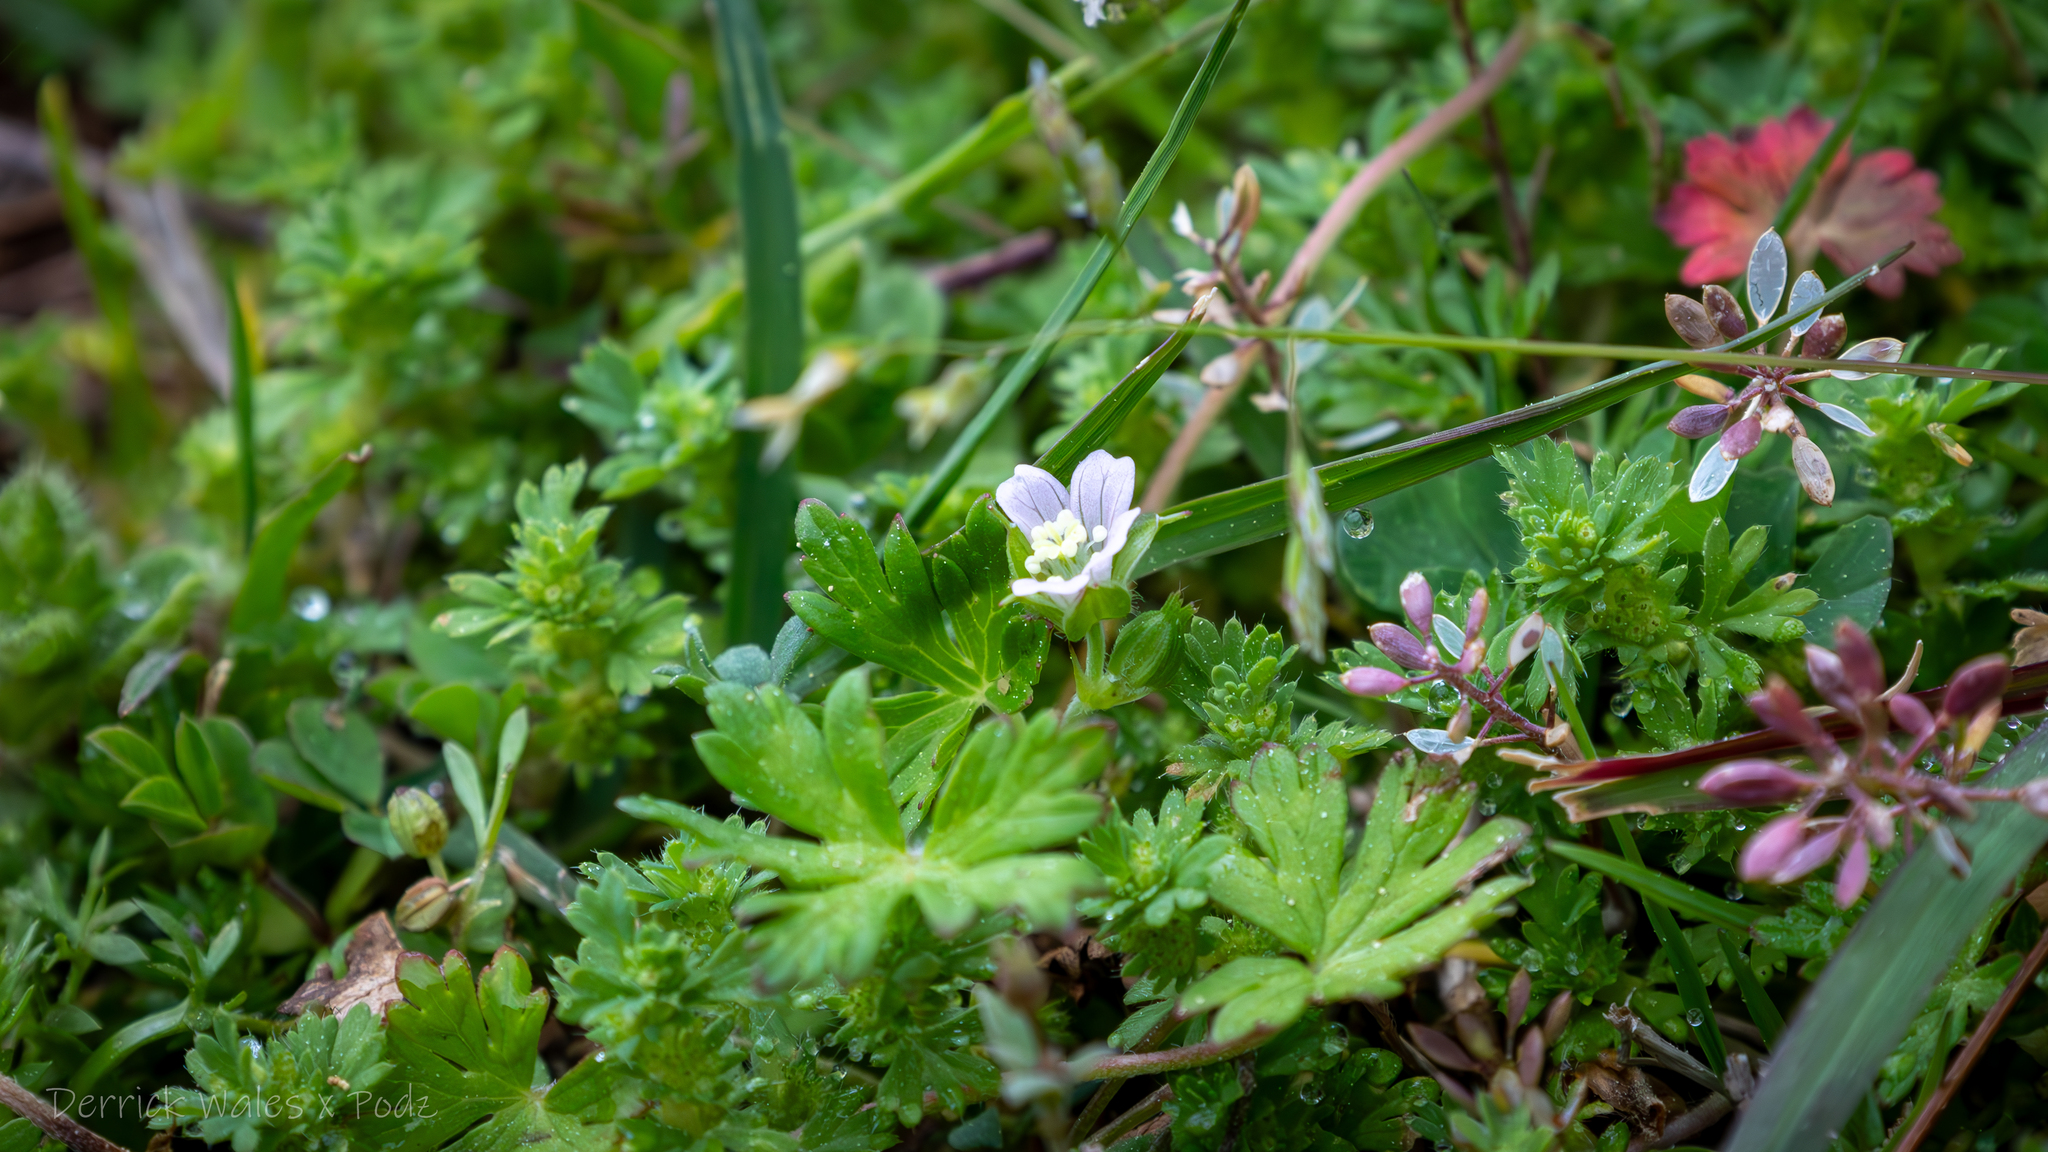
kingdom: Plantae
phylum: Tracheophyta
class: Magnoliopsida
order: Geraniales
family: Geraniaceae
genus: Geranium
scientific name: Geranium carolinianum
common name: Carolina crane's-bill
